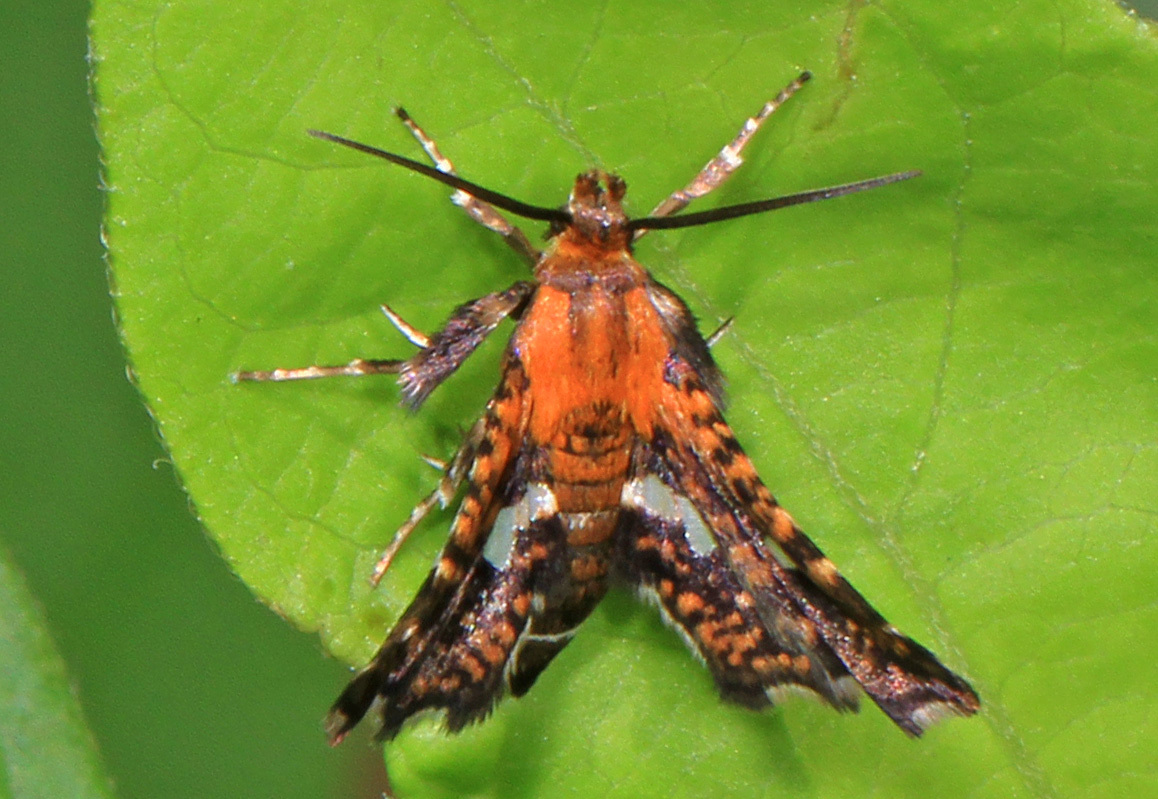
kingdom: Animalia
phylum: Arthropoda
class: Insecta
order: Lepidoptera
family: Thyrididae
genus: Thyris
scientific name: Thyris maculata
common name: Spotted thyris moth
